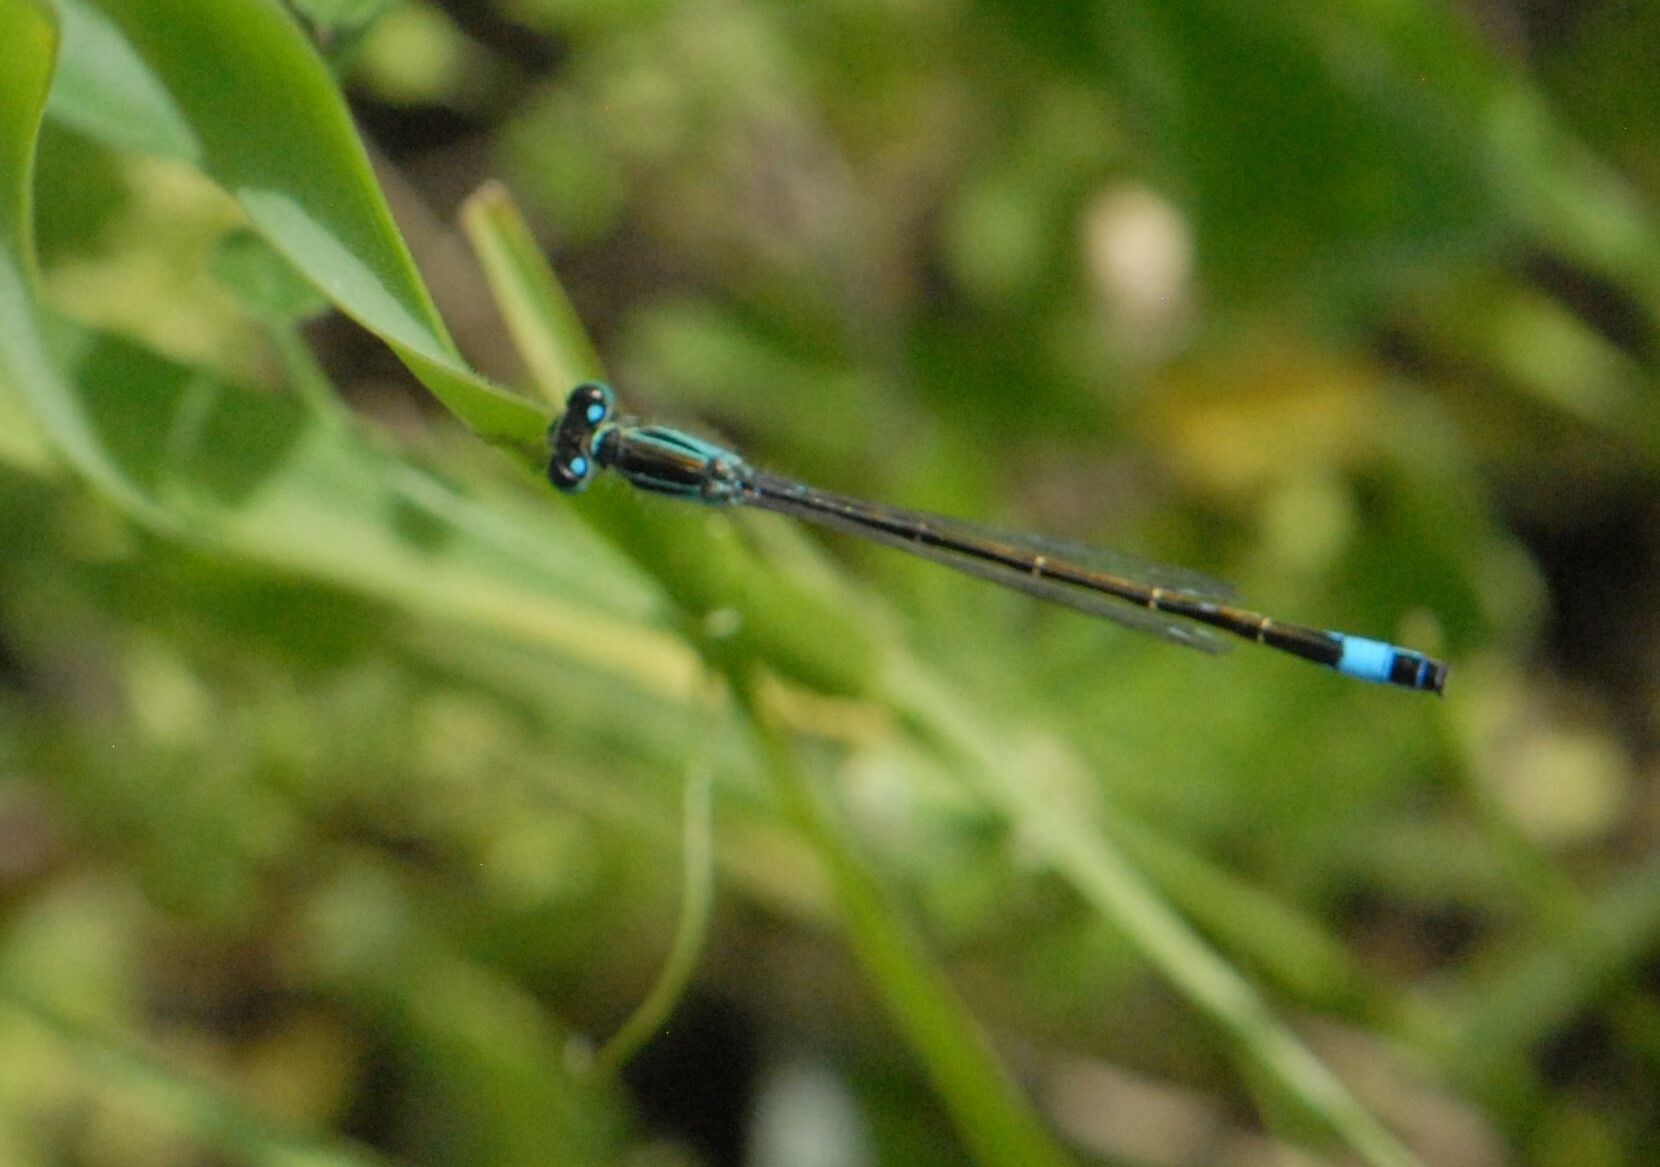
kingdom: Animalia
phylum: Arthropoda
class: Insecta
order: Odonata
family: Coenagrionidae
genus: Ischnura
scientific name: Ischnura elegans
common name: Blue-tailed damselfly
